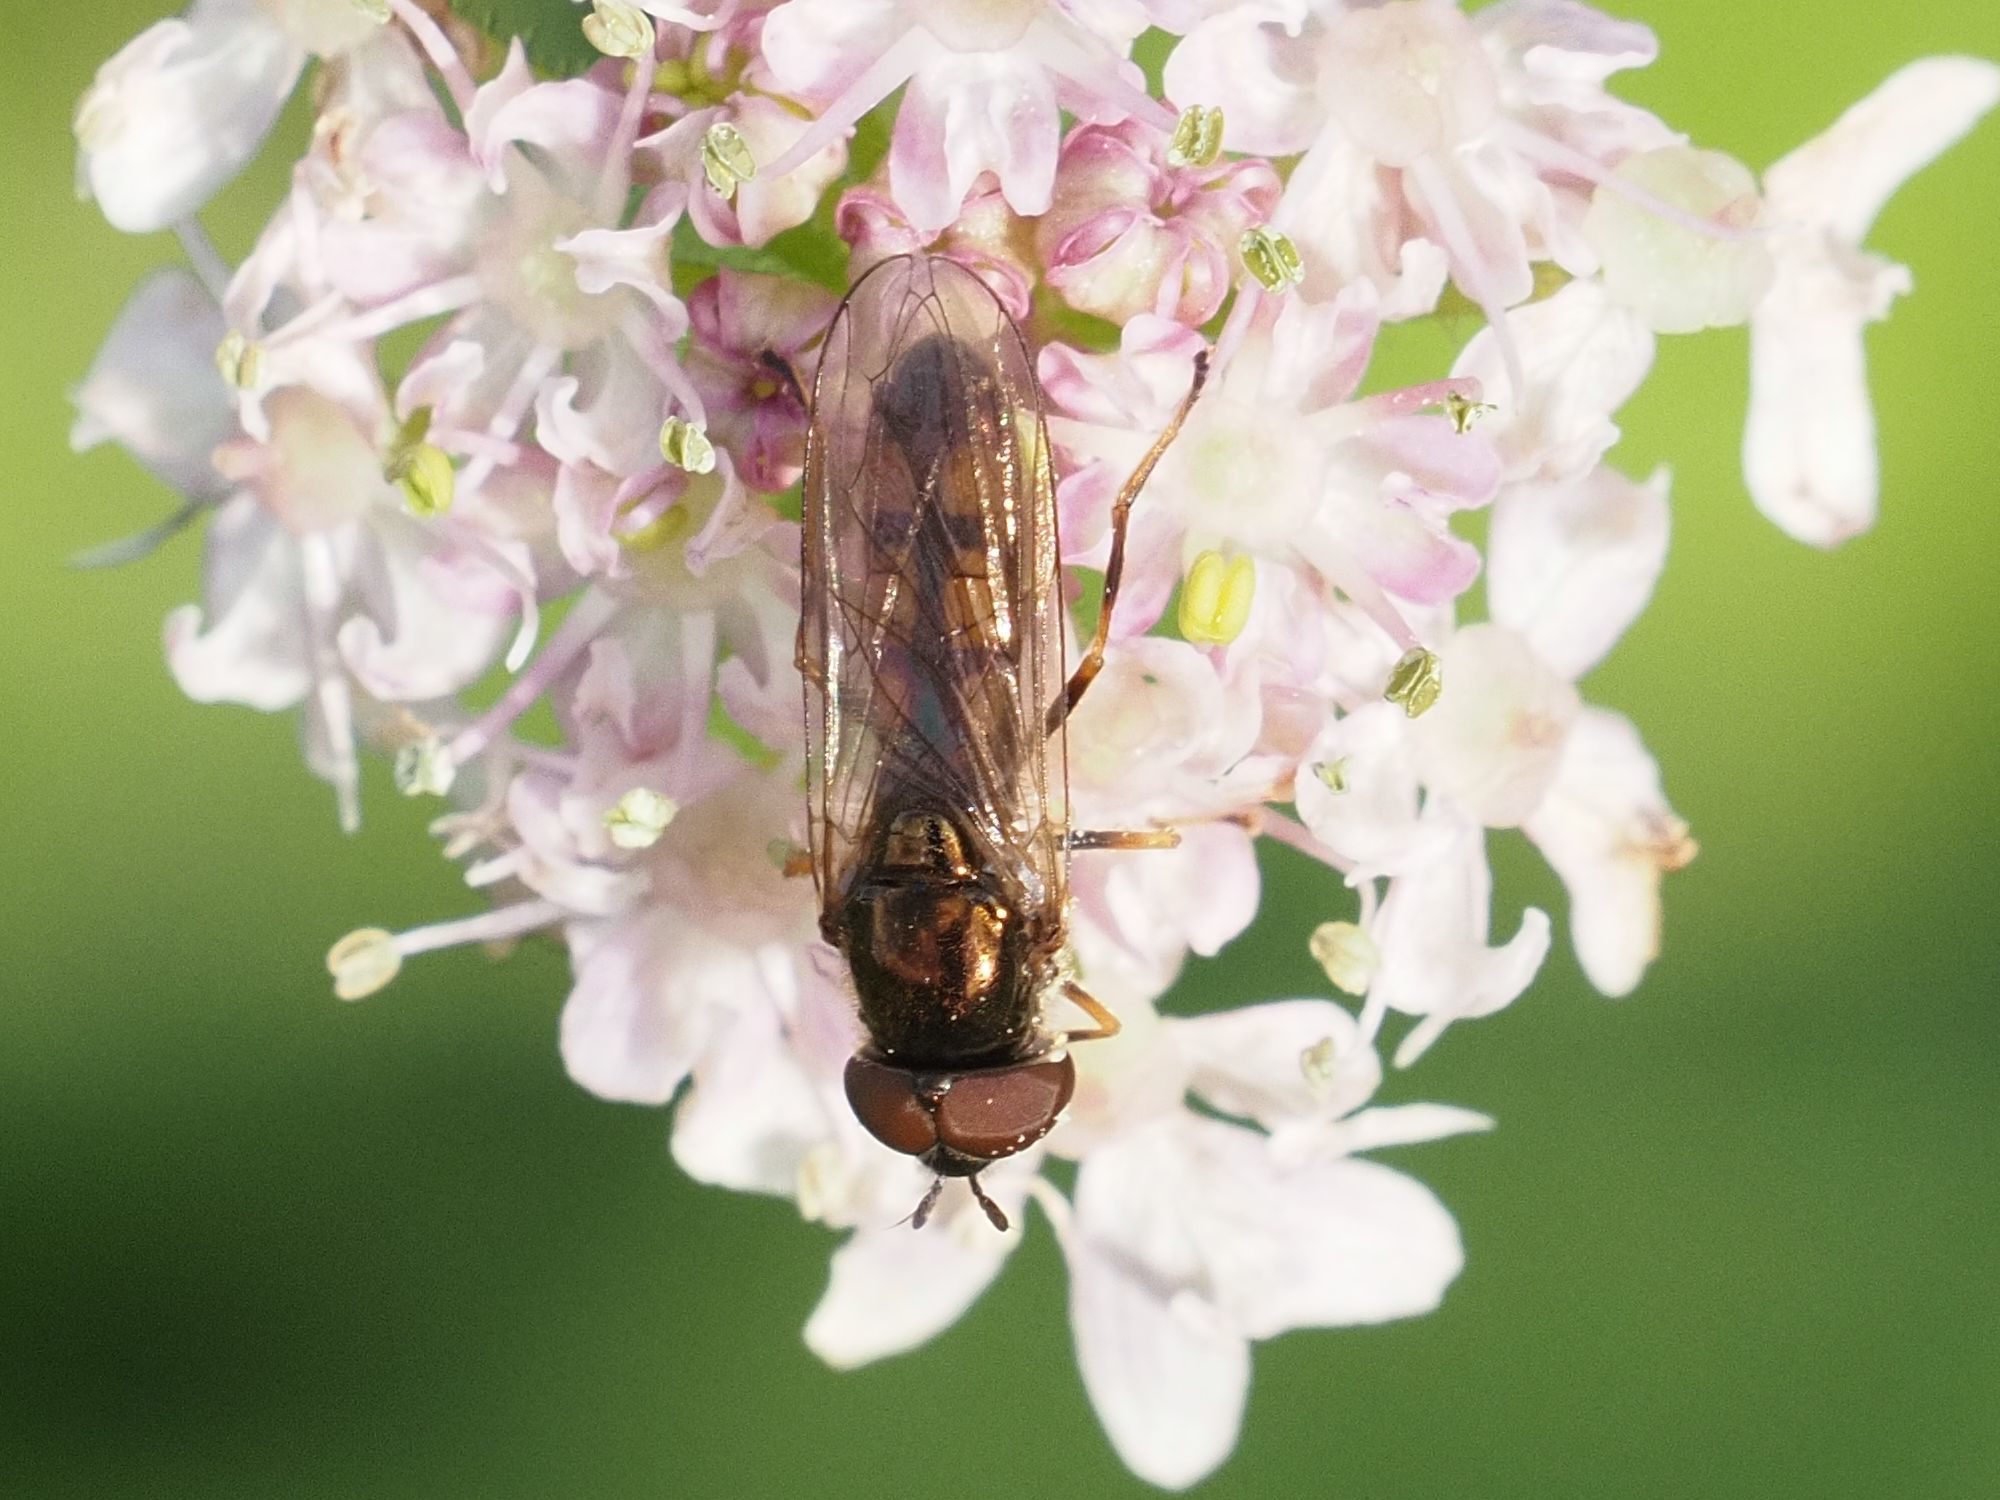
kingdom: Animalia
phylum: Arthropoda
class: Insecta
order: Diptera
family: Syrphidae
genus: Melanostoma
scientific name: Melanostoma mellina
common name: Hover fly
